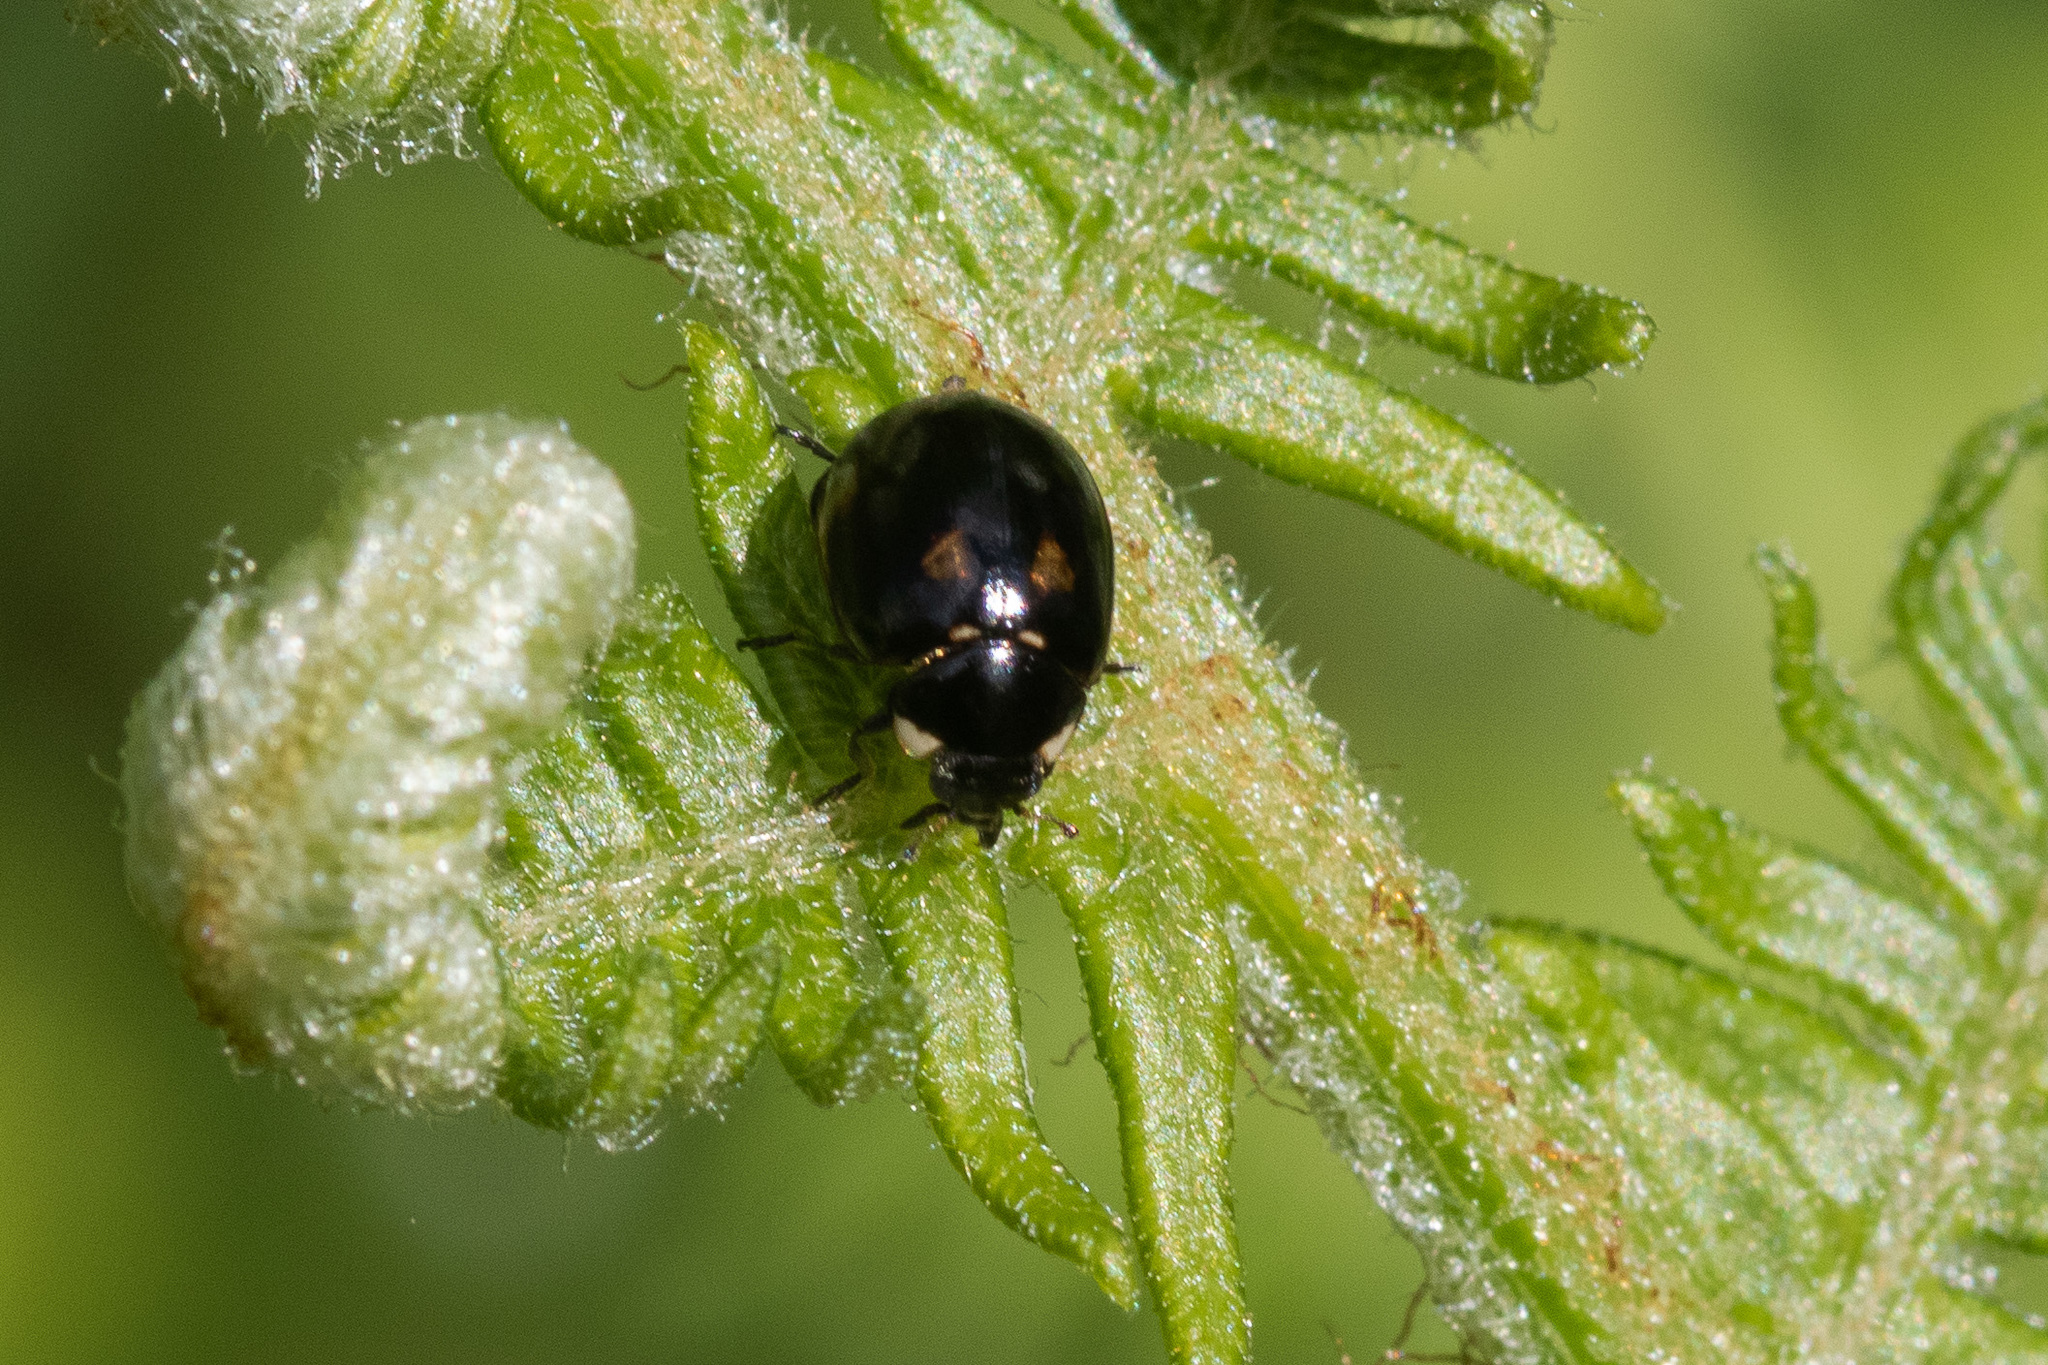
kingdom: Animalia
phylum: Arthropoda
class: Insecta
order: Coleoptera
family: Coccinellidae
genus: Coccinella
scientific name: Coccinella hieroglyphica
